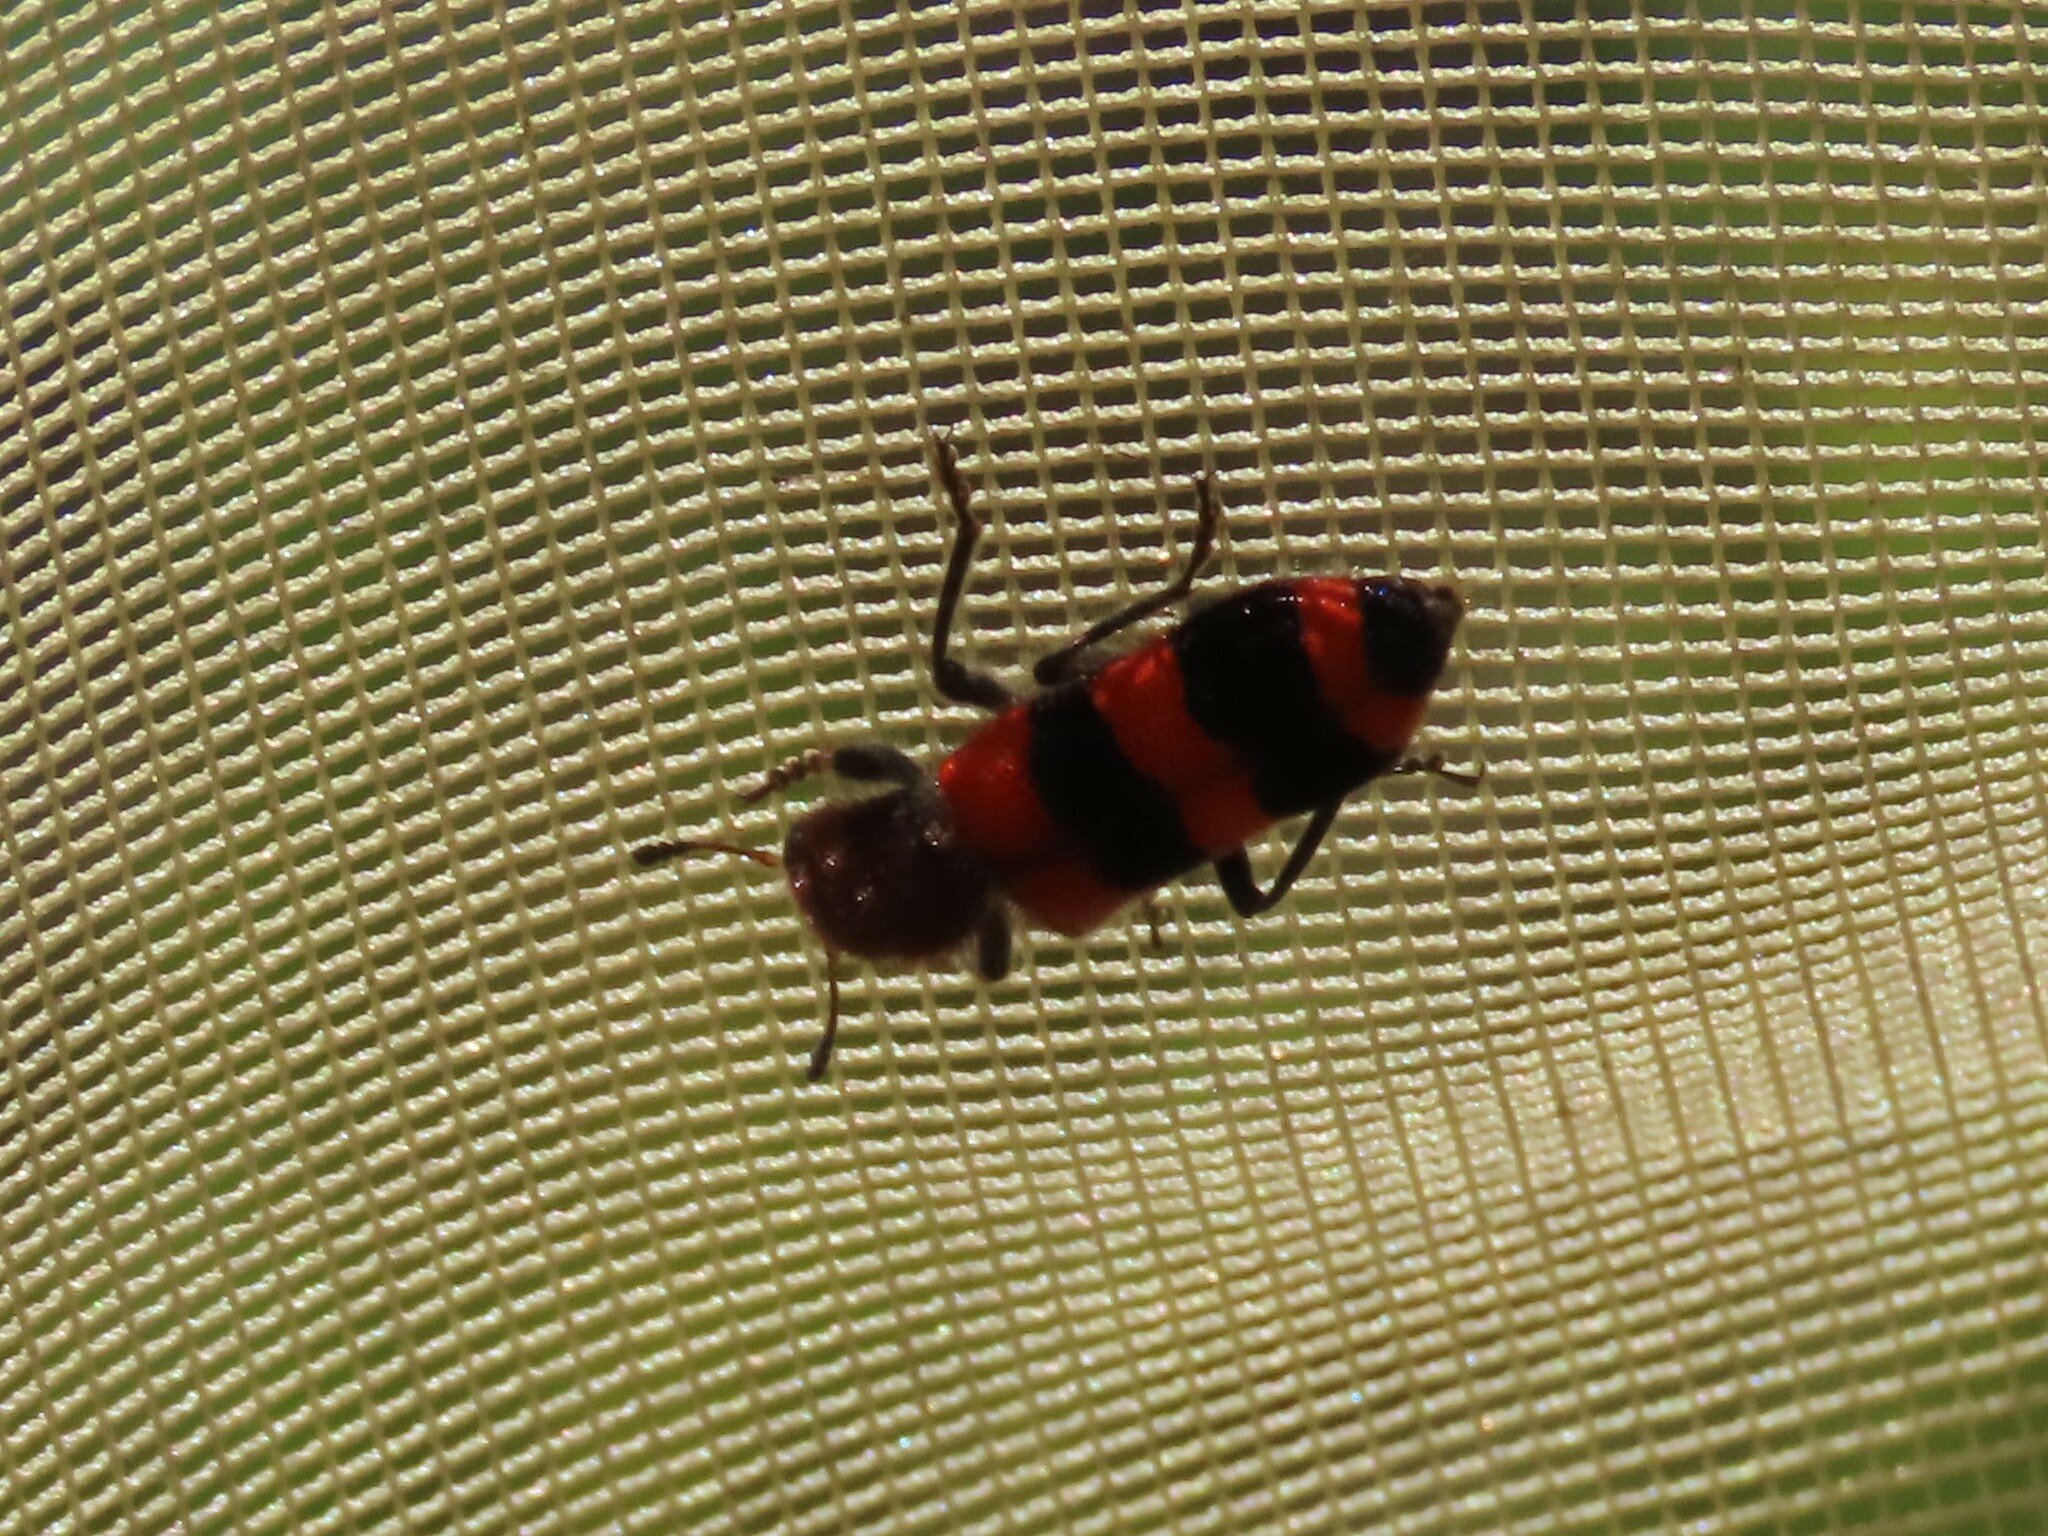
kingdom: Animalia
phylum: Arthropoda
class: Insecta
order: Coleoptera
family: Cleridae
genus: Trichodes
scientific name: Trichodes apivorus
